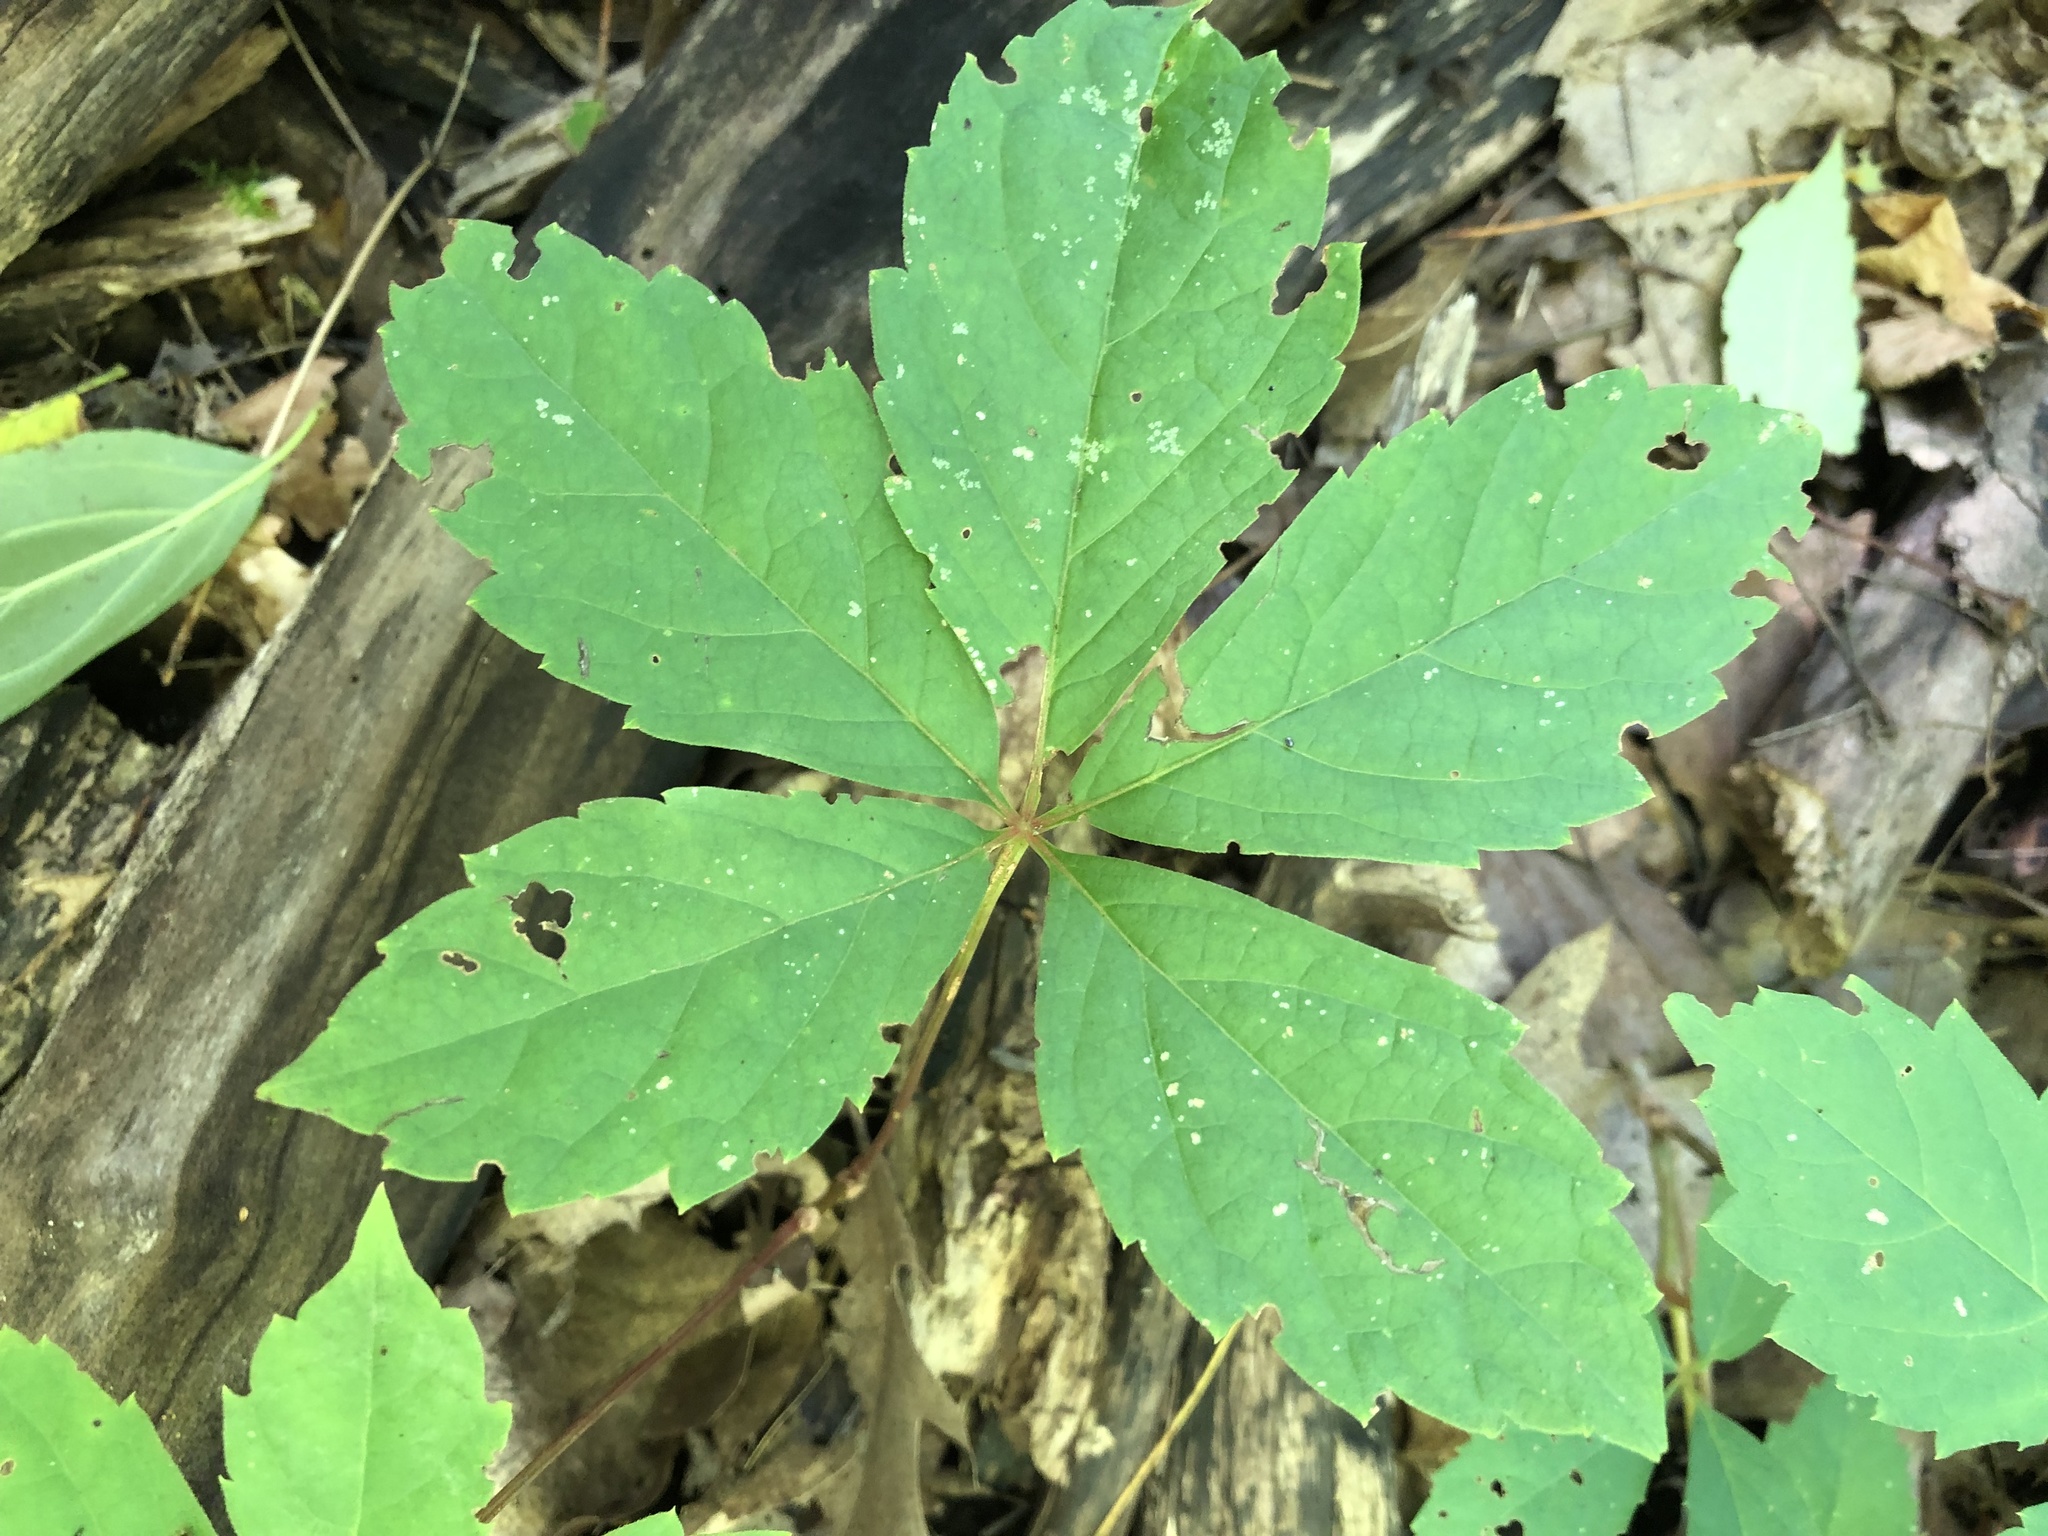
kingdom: Plantae
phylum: Tracheophyta
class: Magnoliopsida
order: Vitales
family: Vitaceae
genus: Parthenocissus
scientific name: Parthenocissus quinquefolia
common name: Virginia-creeper
